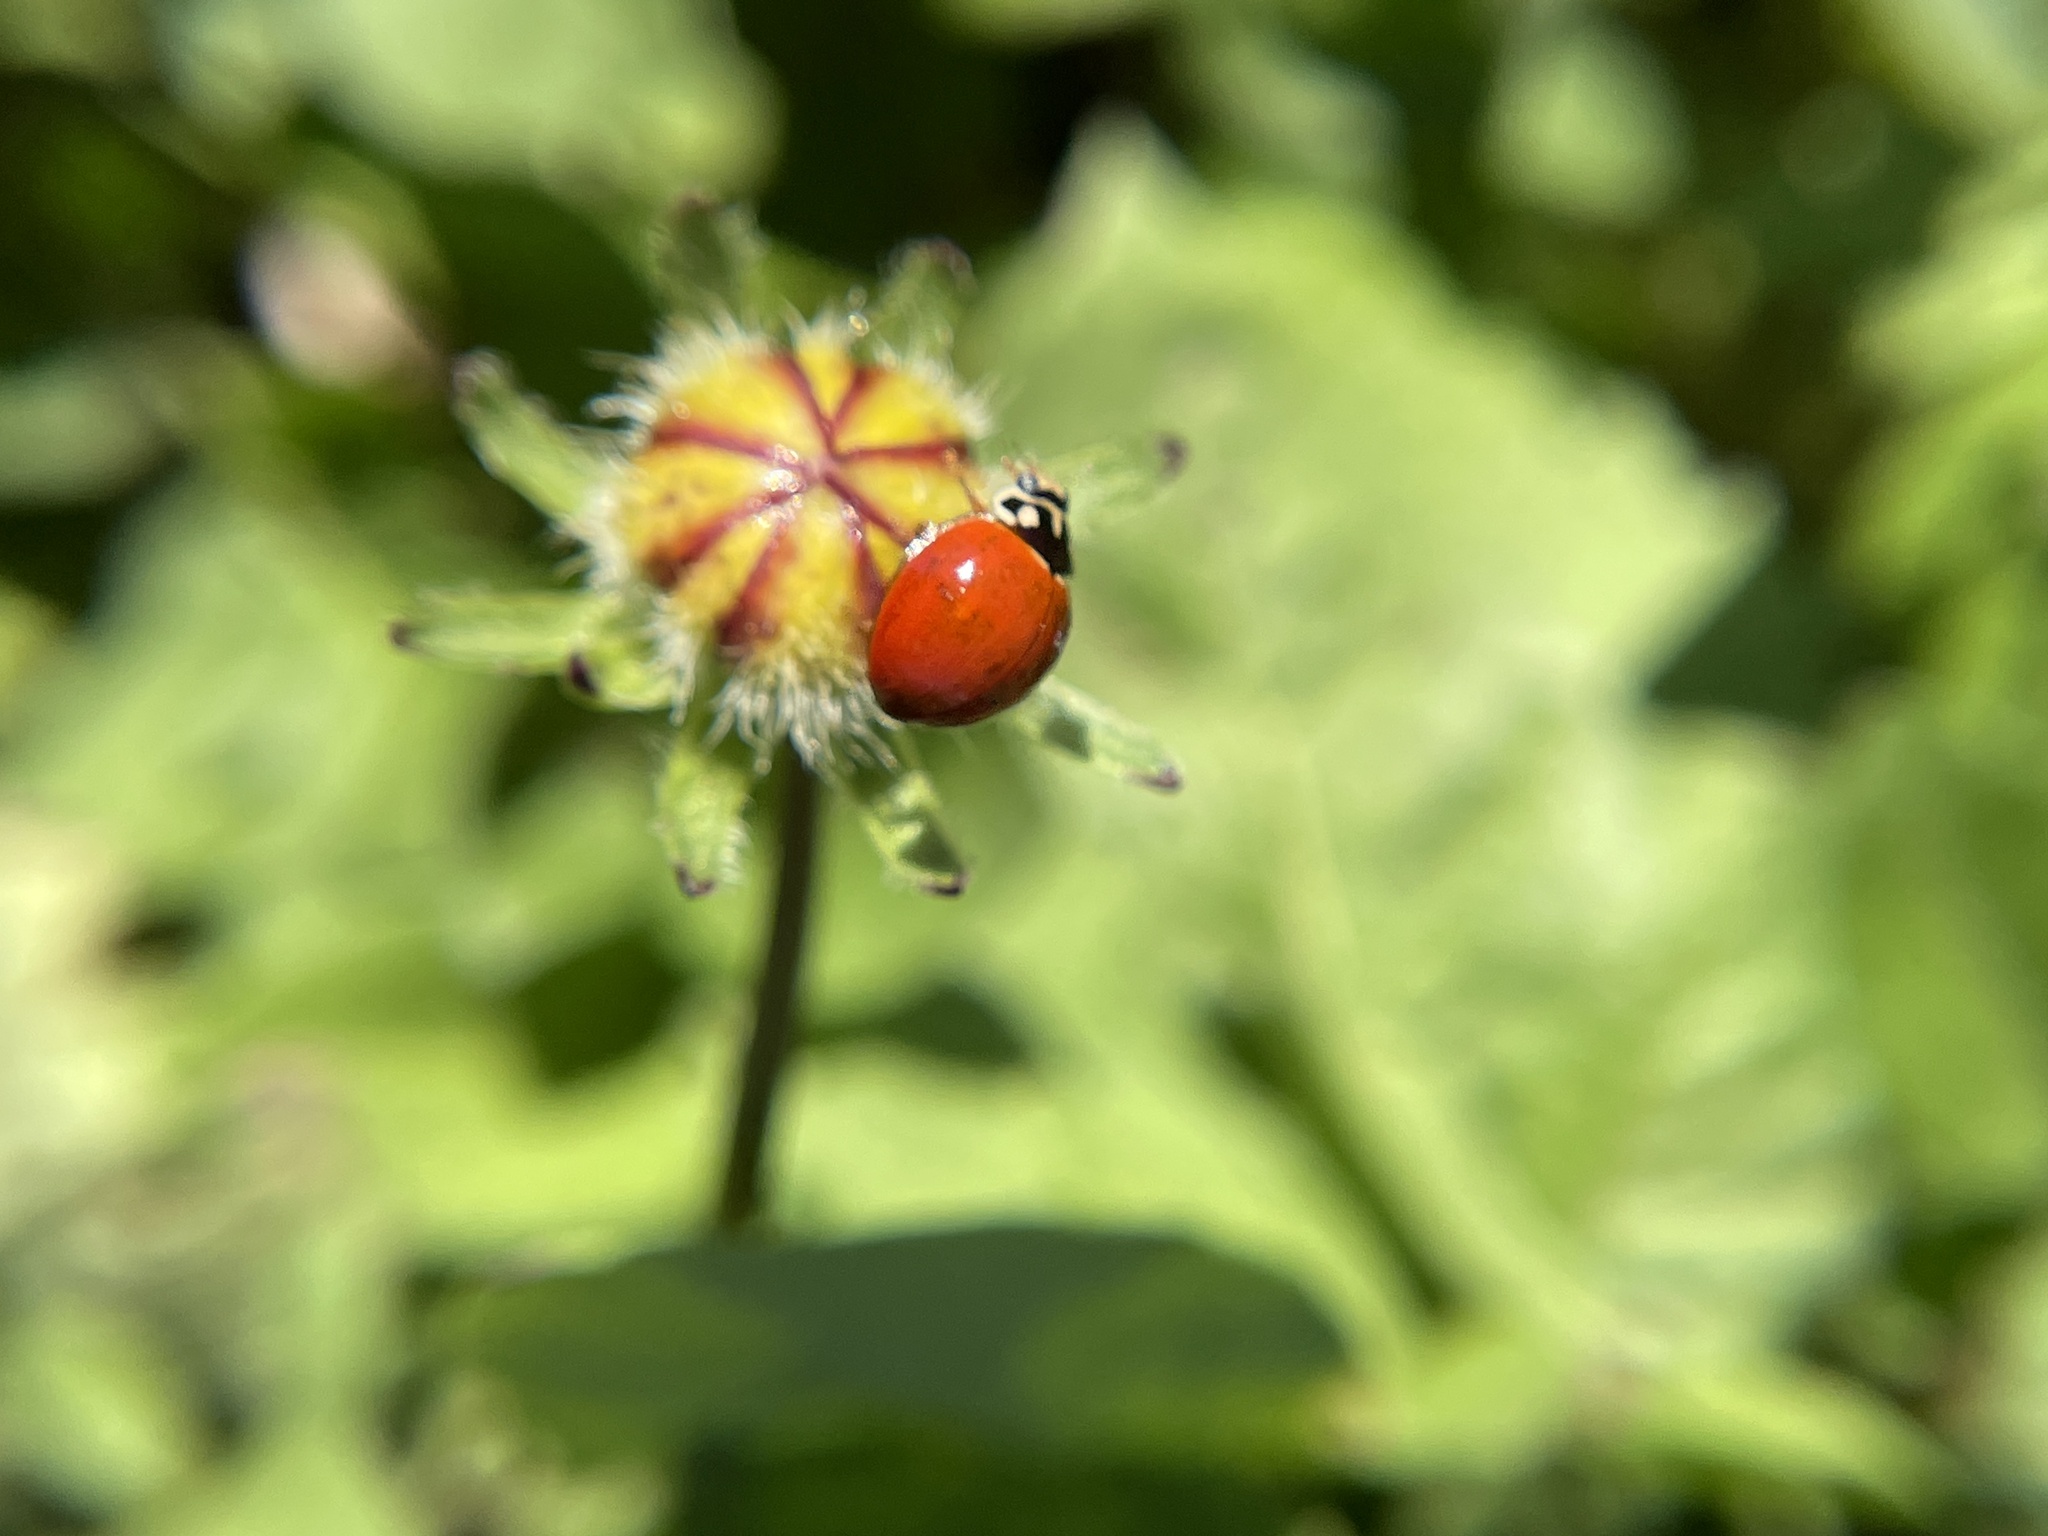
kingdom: Animalia
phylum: Arthropoda
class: Insecta
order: Coleoptera
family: Coccinellidae
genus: Cycloneda
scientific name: Cycloneda sanguinea
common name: Ladybird beetle
